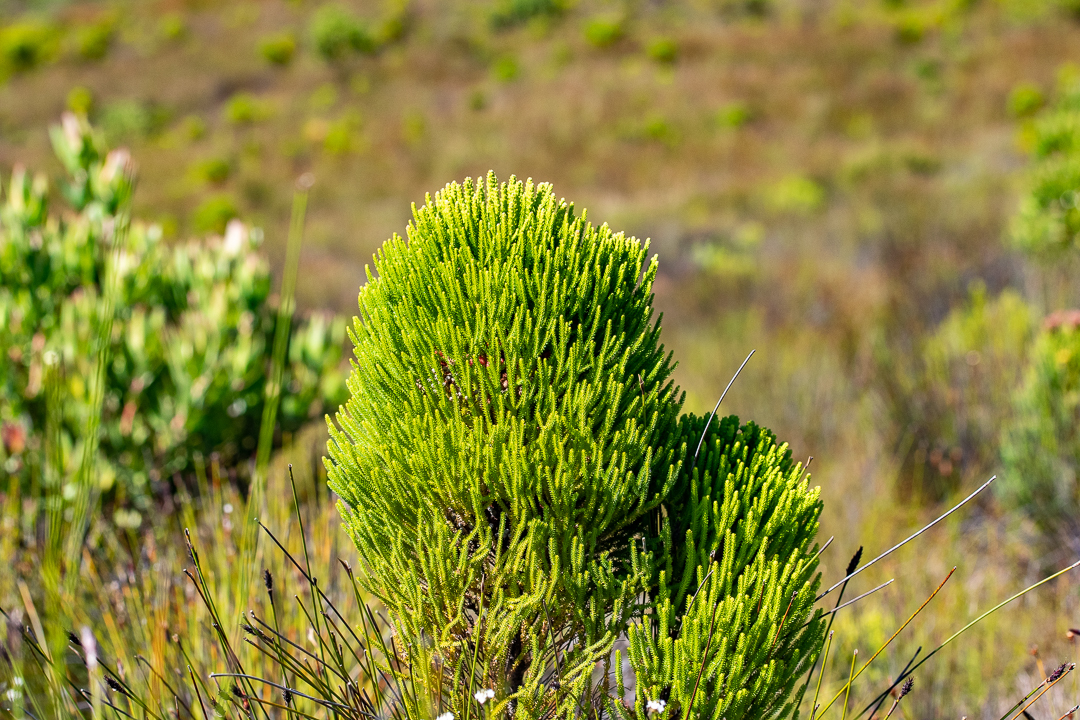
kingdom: Plantae
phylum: Tracheophyta
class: Magnoliopsida
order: Bruniales
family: Bruniaceae
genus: Berzelia
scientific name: Berzelia alopecurioides
